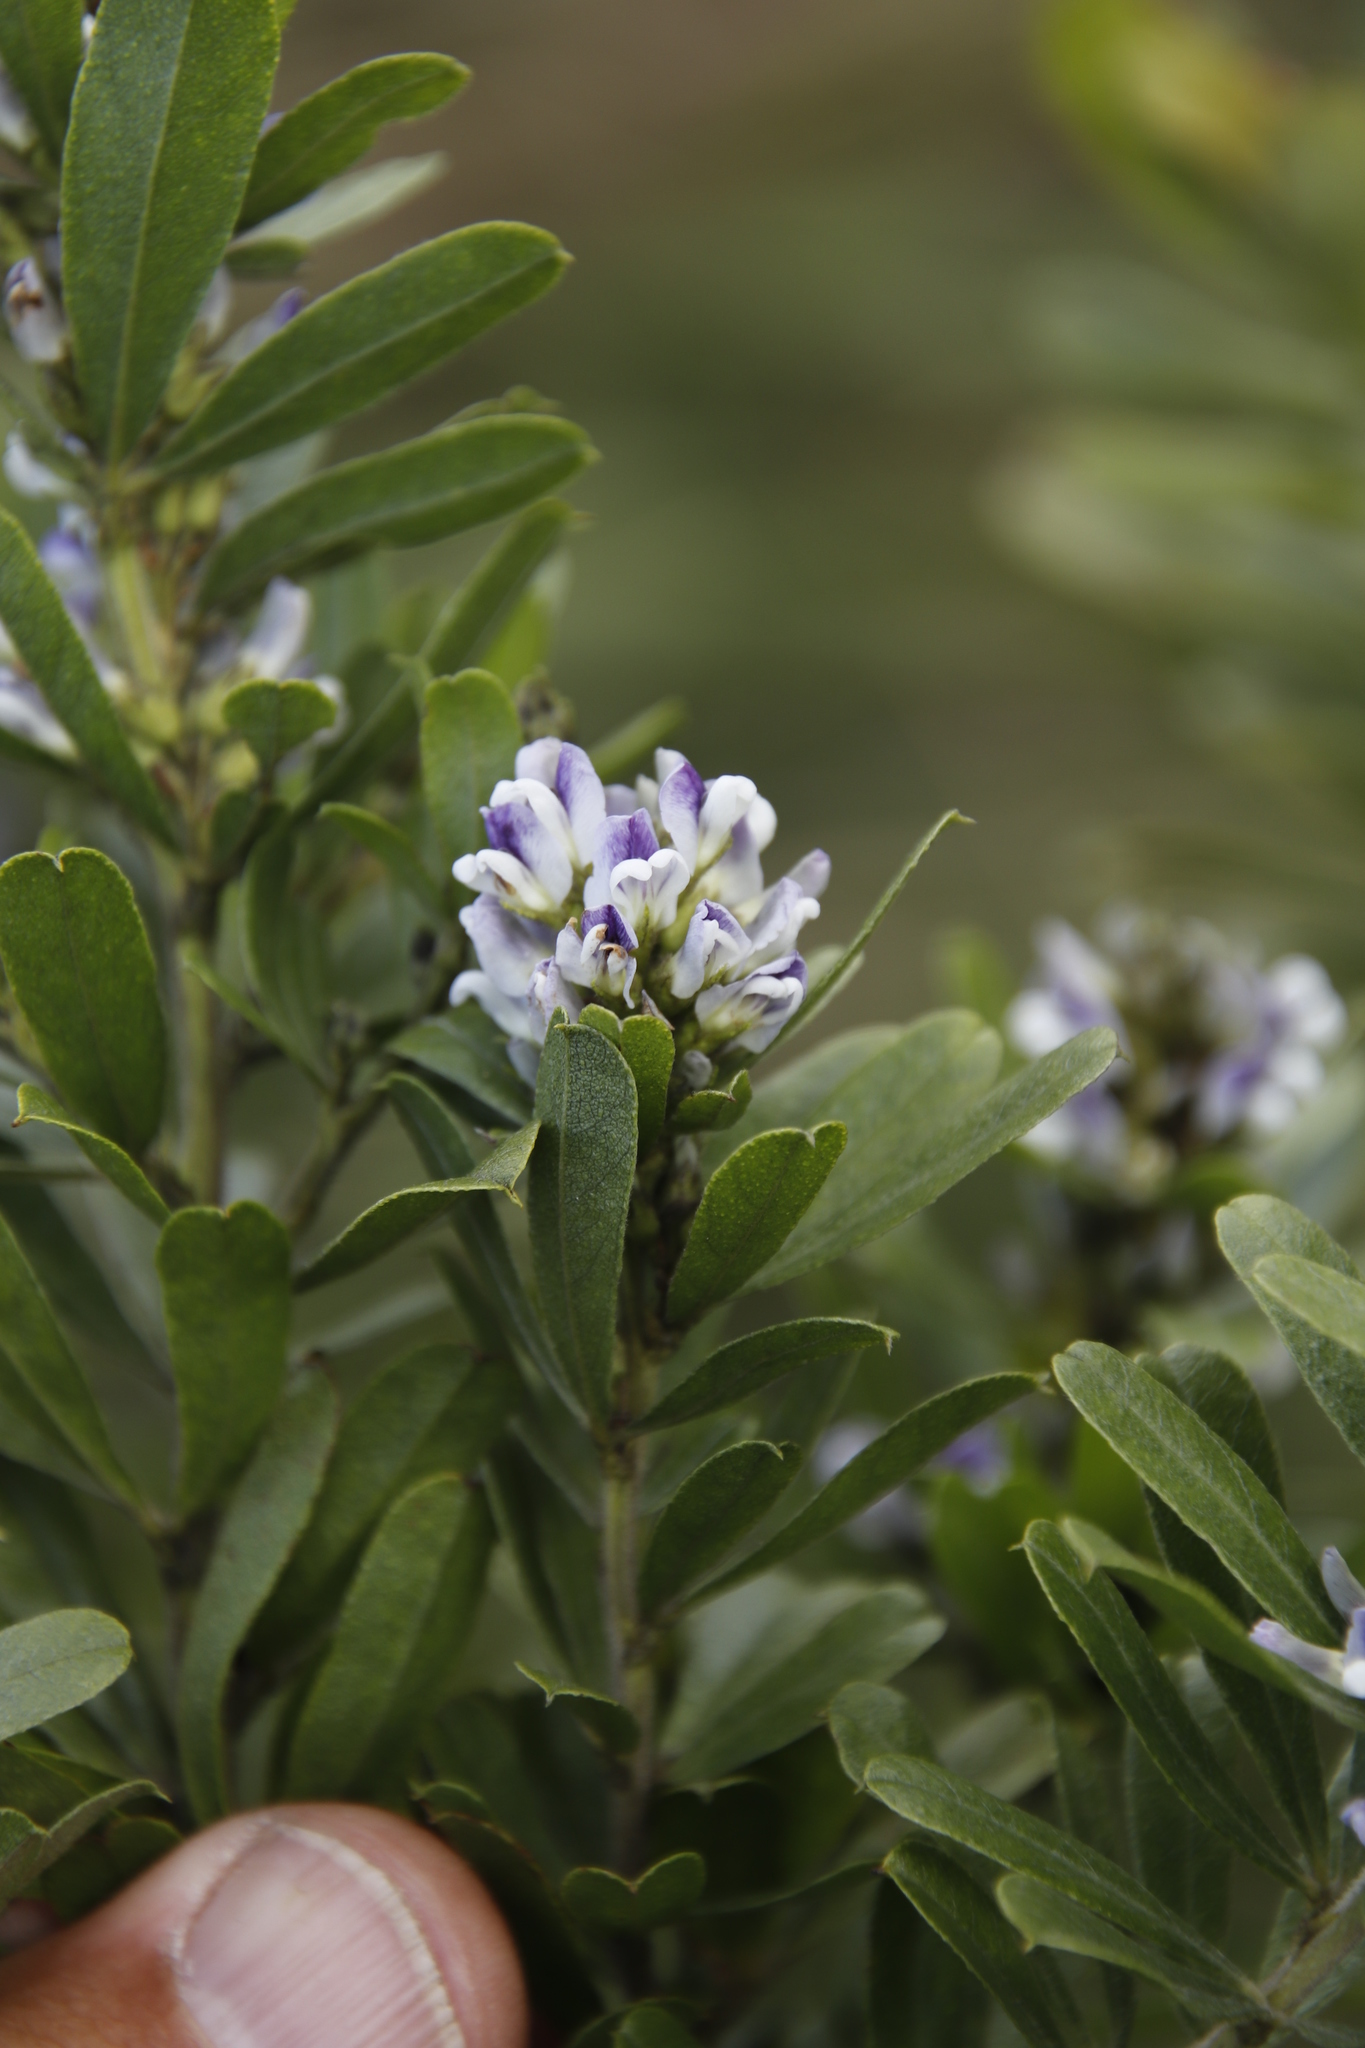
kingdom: Plantae
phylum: Tracheophyta
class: Magnoliopsida
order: Fabales
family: Fabaceae
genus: Psoralea
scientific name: Psoralea foliosa
